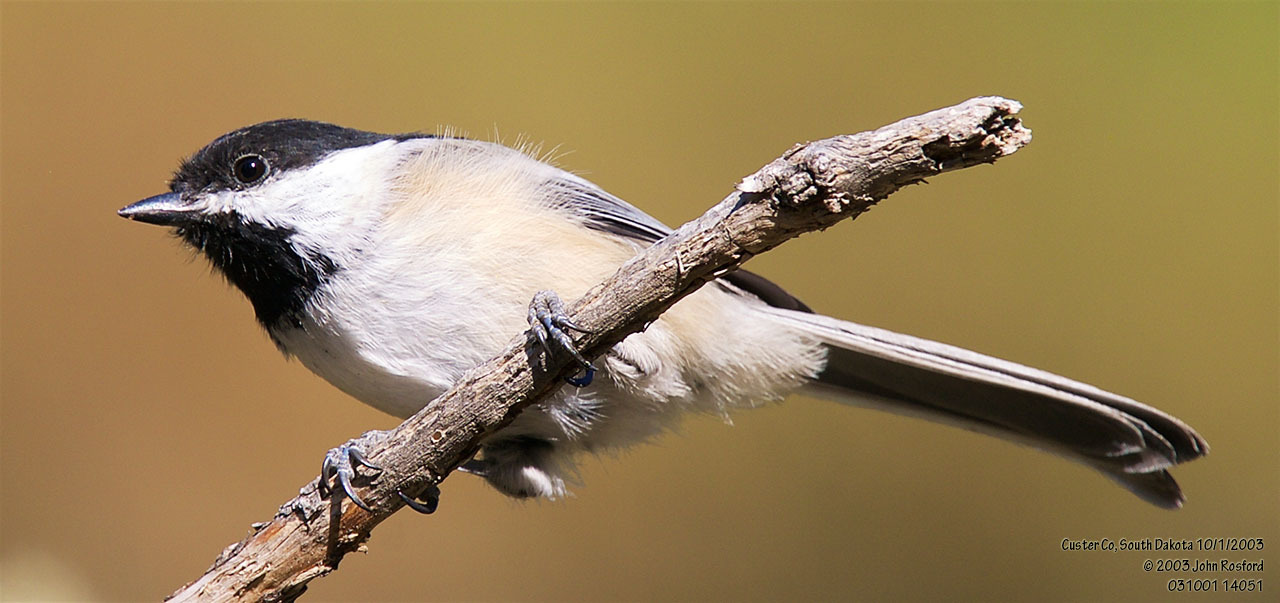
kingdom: Animalia
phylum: Chordata
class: Aves
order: Passeriformes
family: Paridae
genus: Poecile
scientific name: Poecile atricapillus
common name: Black-capped chickadee
